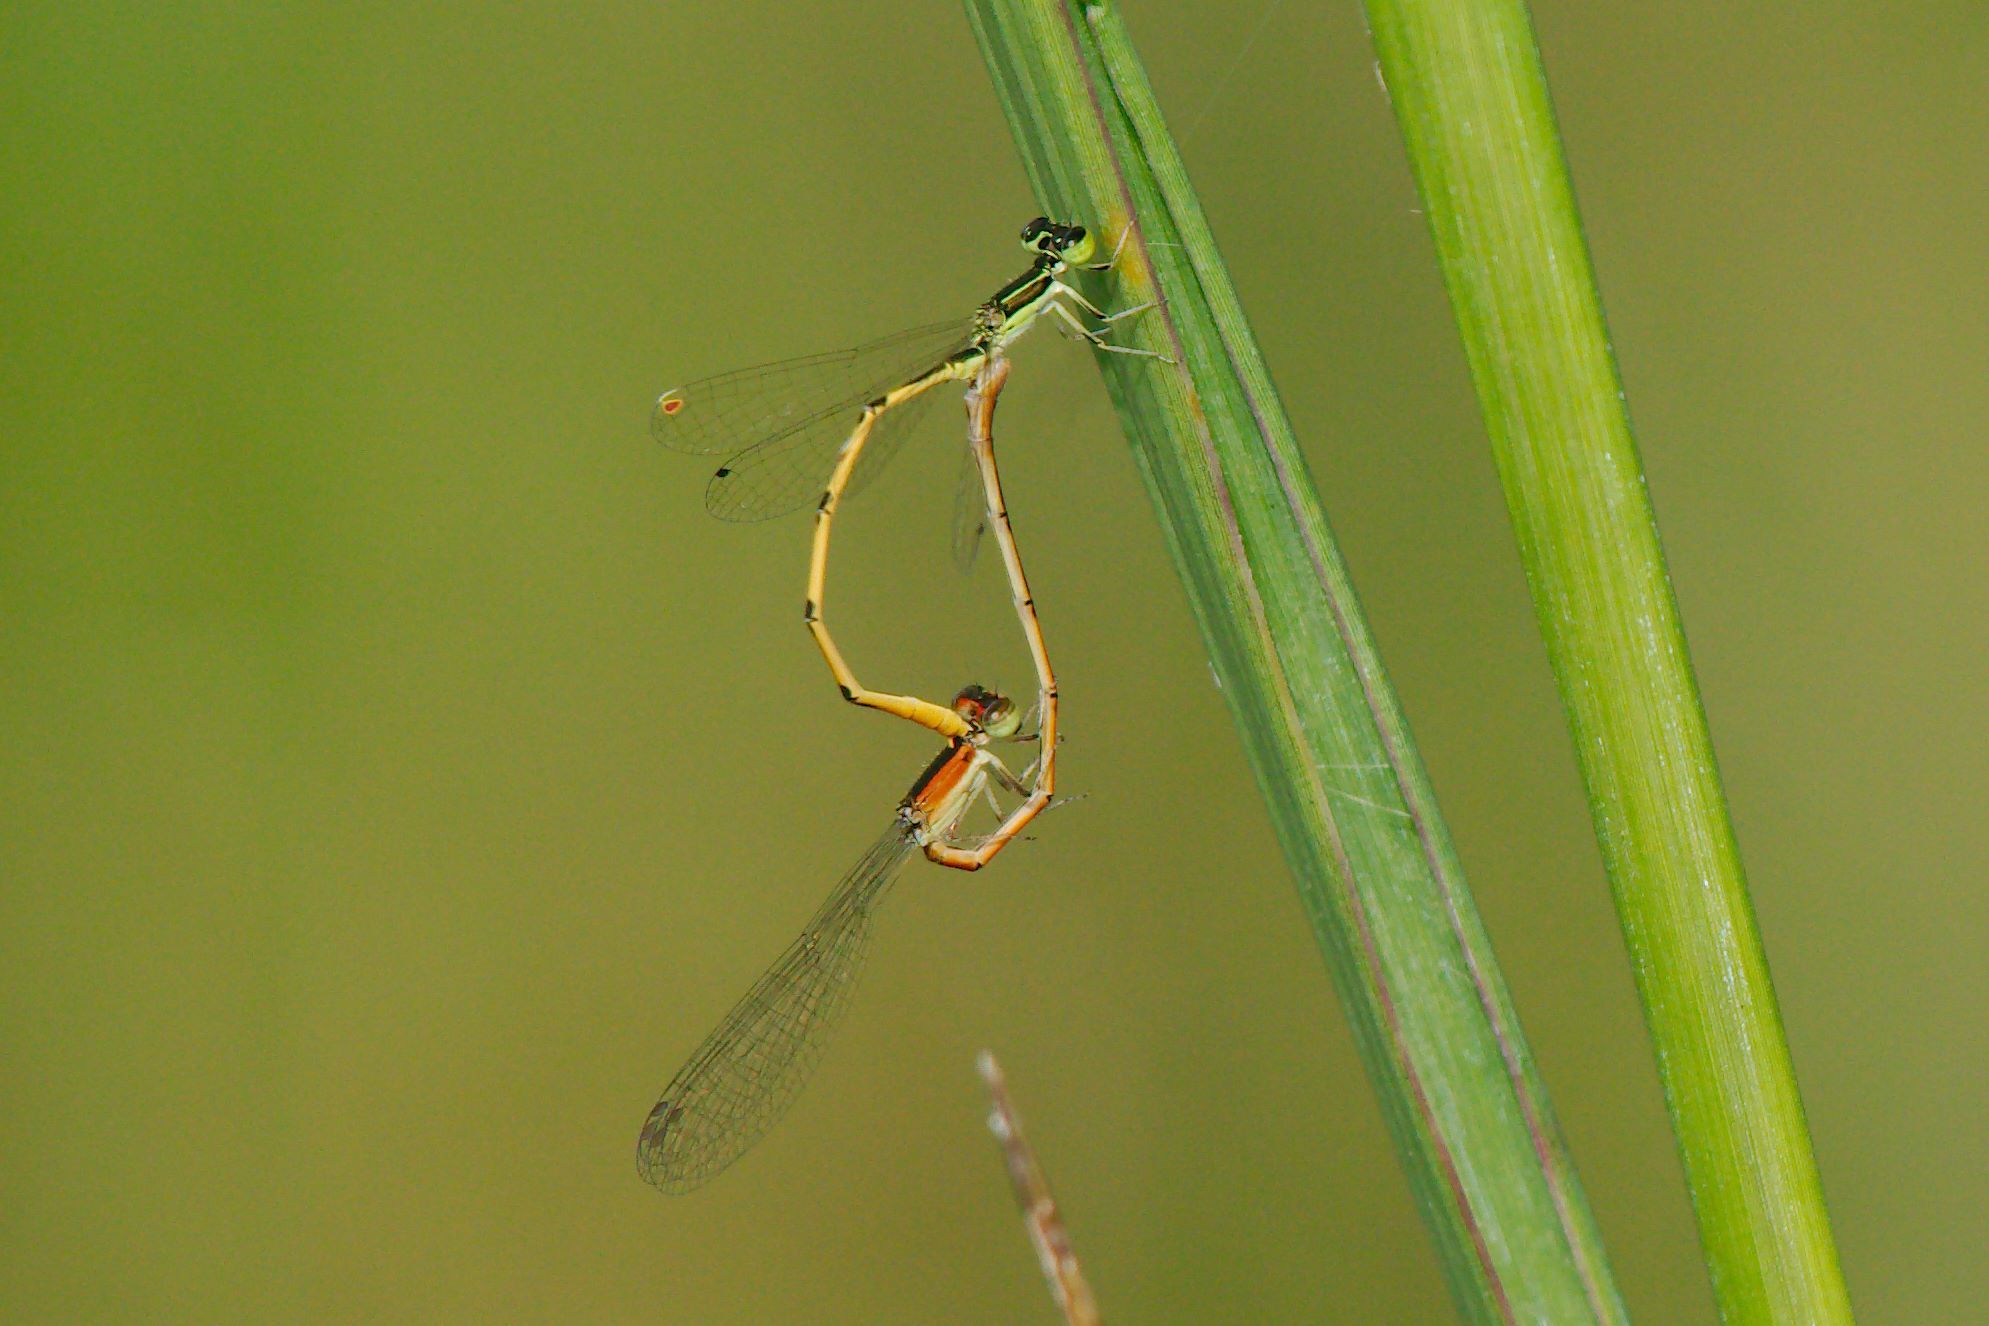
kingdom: Animalia
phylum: Arthropoda
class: Insecta
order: Odonata
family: Coenagrionidae
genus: Ischnura
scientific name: Ischnura hastata
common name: Citrine forktail
